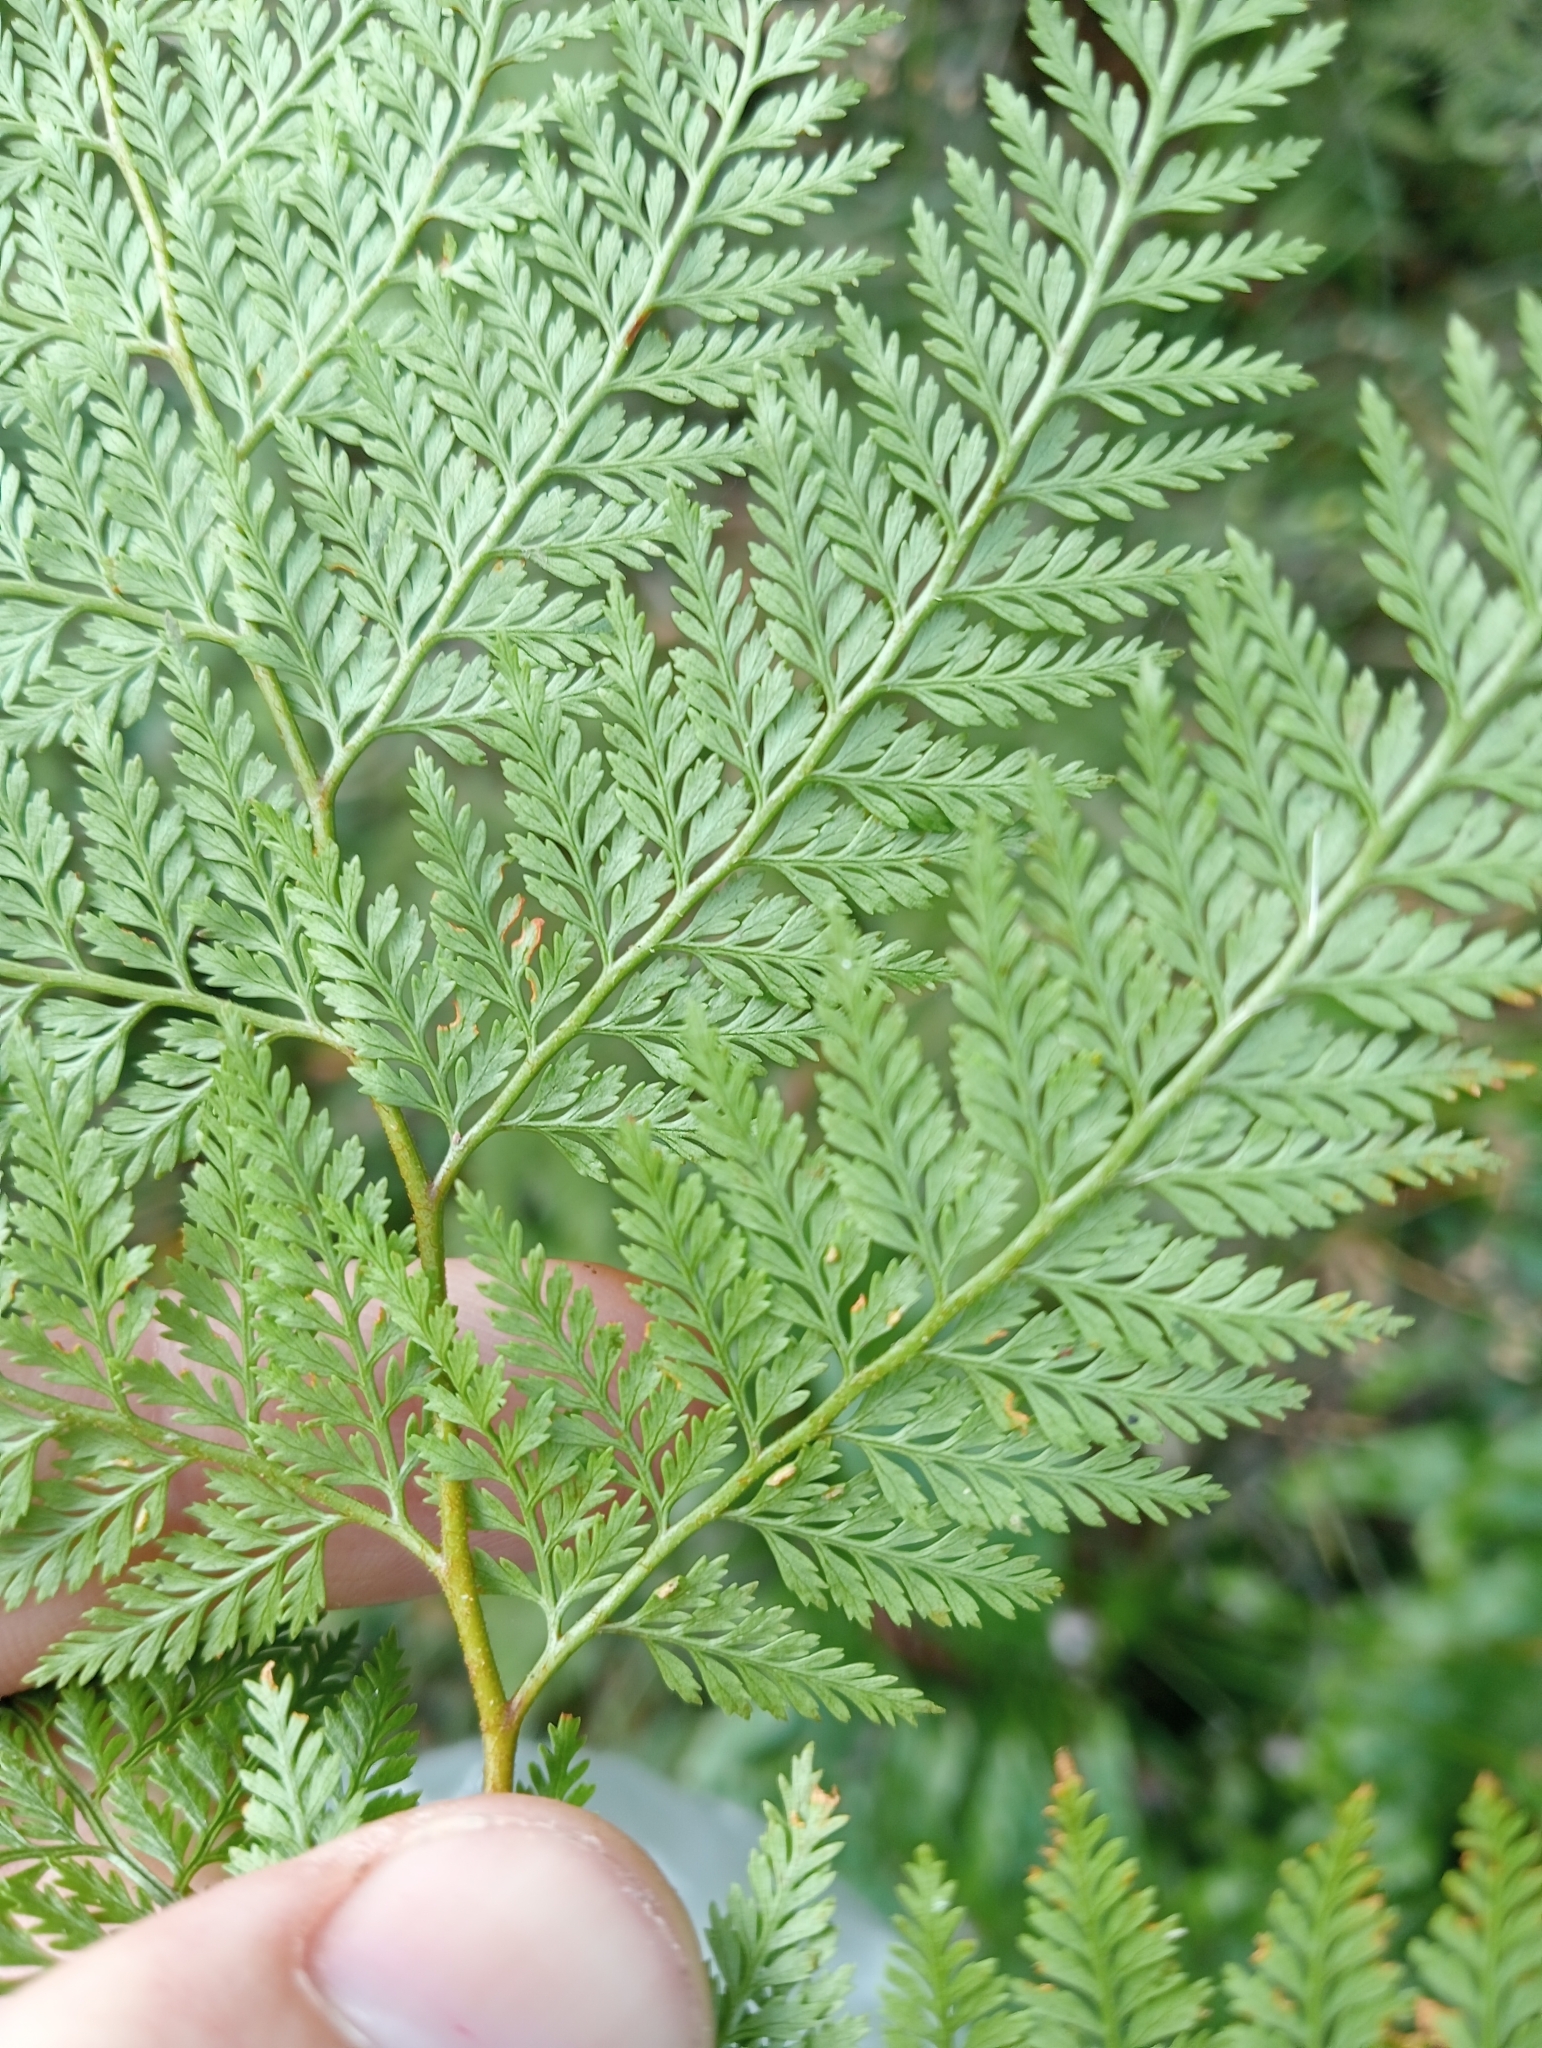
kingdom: Plantae
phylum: Tracheophyta
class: Polypodiopsida
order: Polypodiales
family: Dennstaedtiaceae
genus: Paesia
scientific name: Paesia scaberula
